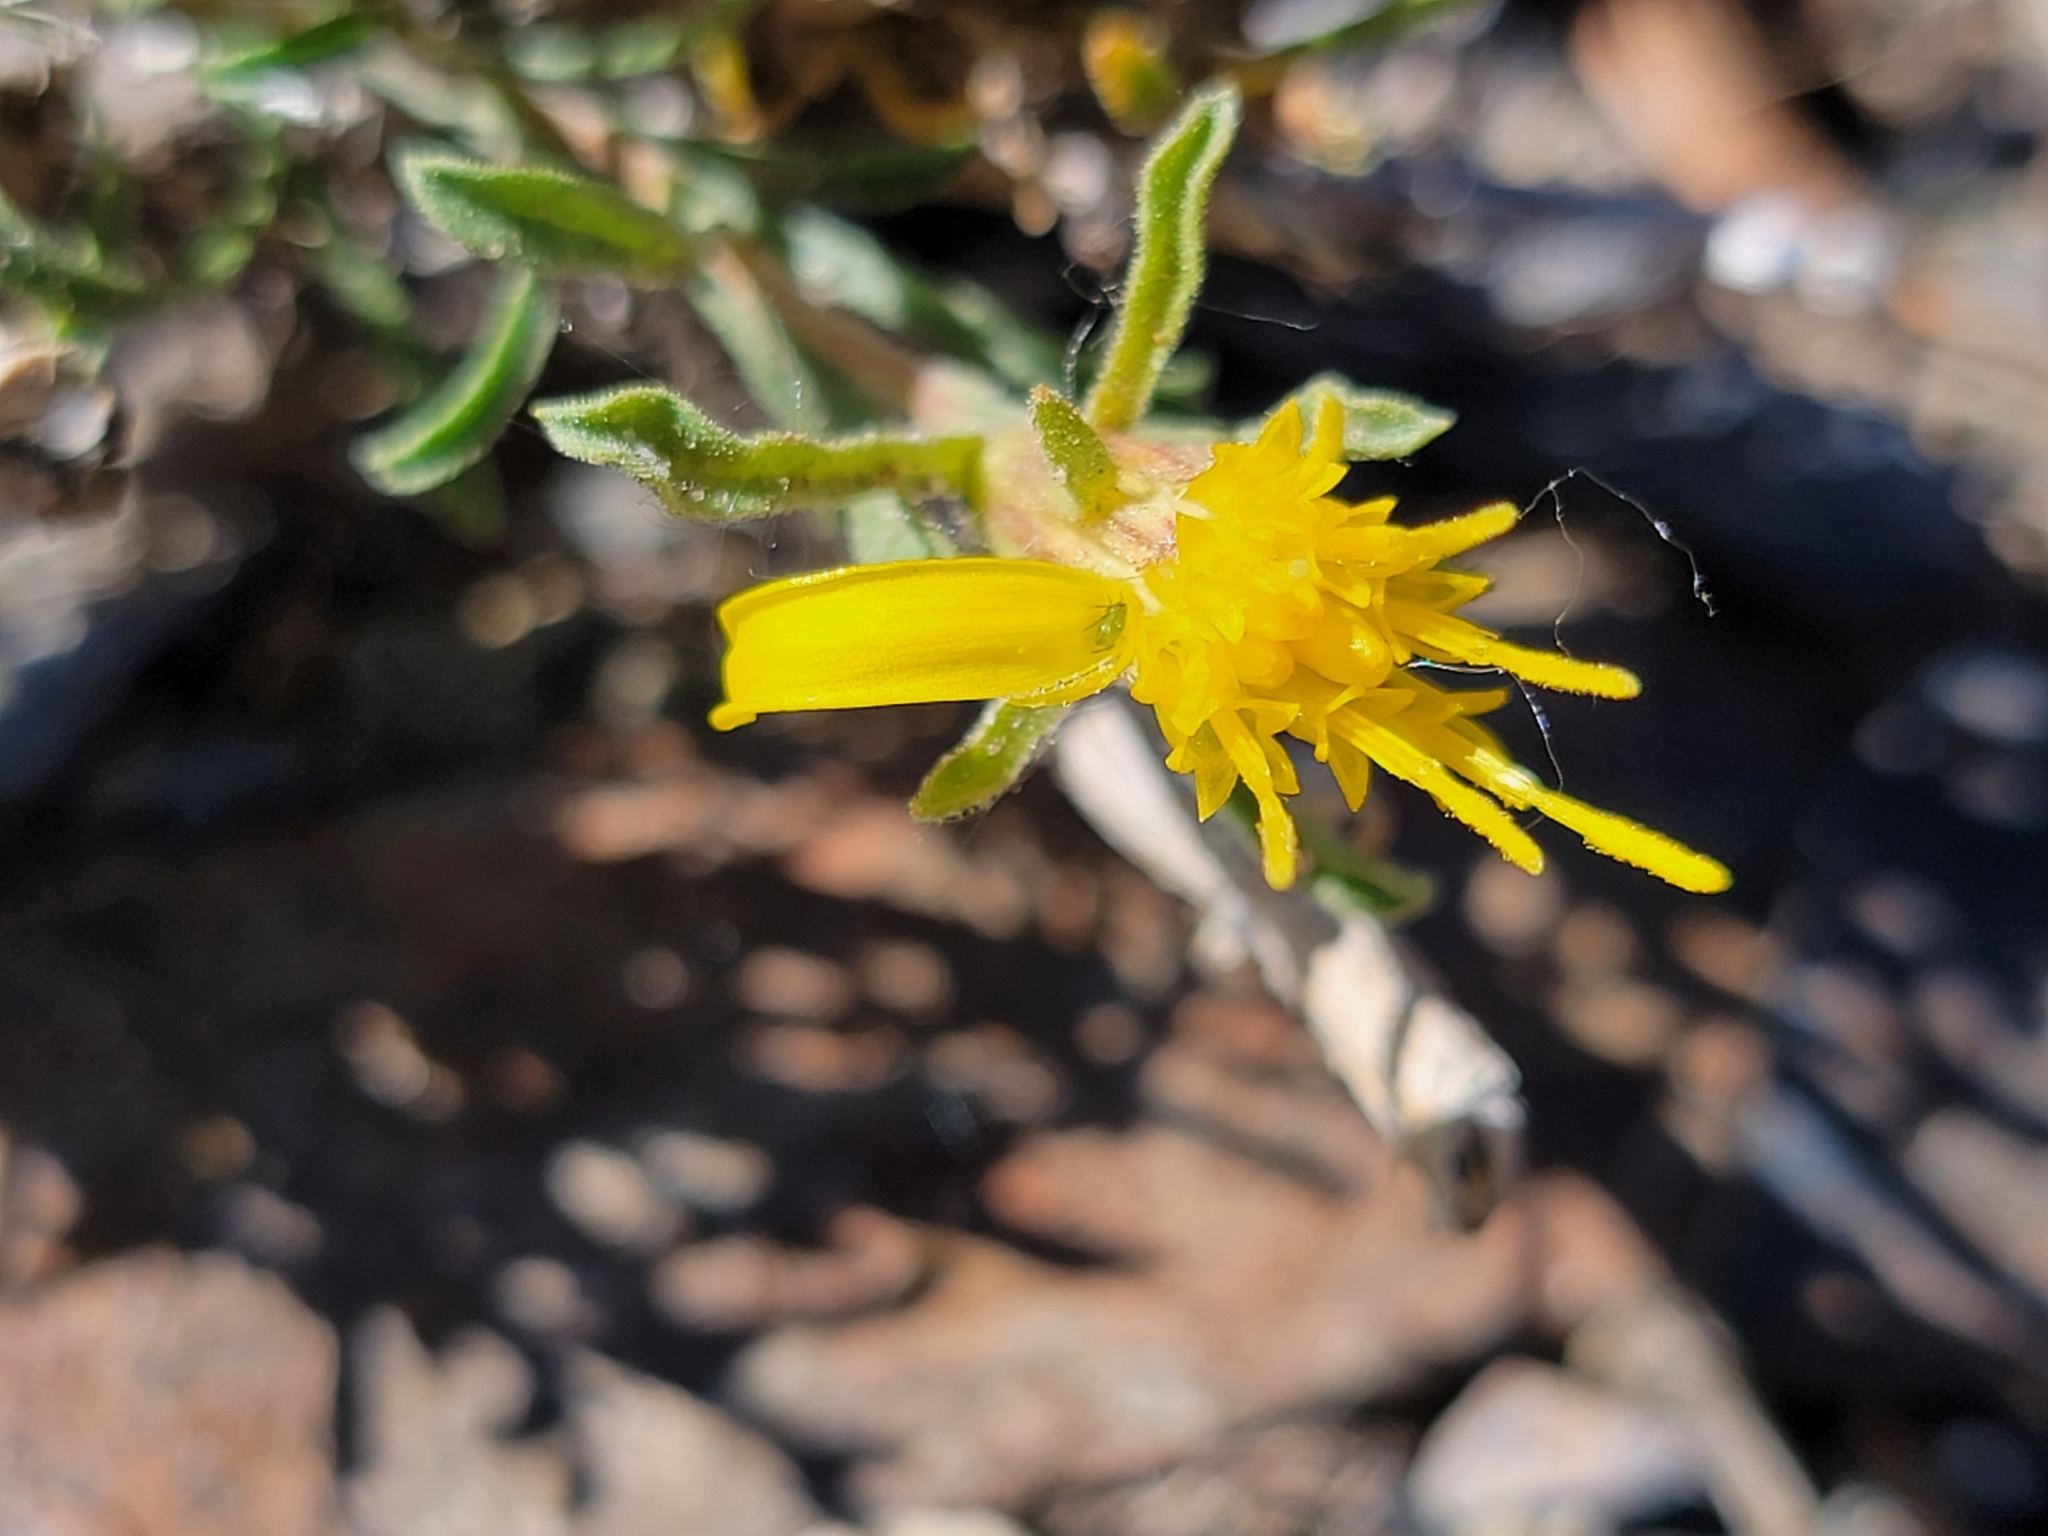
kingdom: Plantae
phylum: Tracheophyta
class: Magnoliopsida
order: Asterales
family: Asteraceae
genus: Ericameria
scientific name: Ericameria discoidea
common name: Sharp-scale goldenweed
